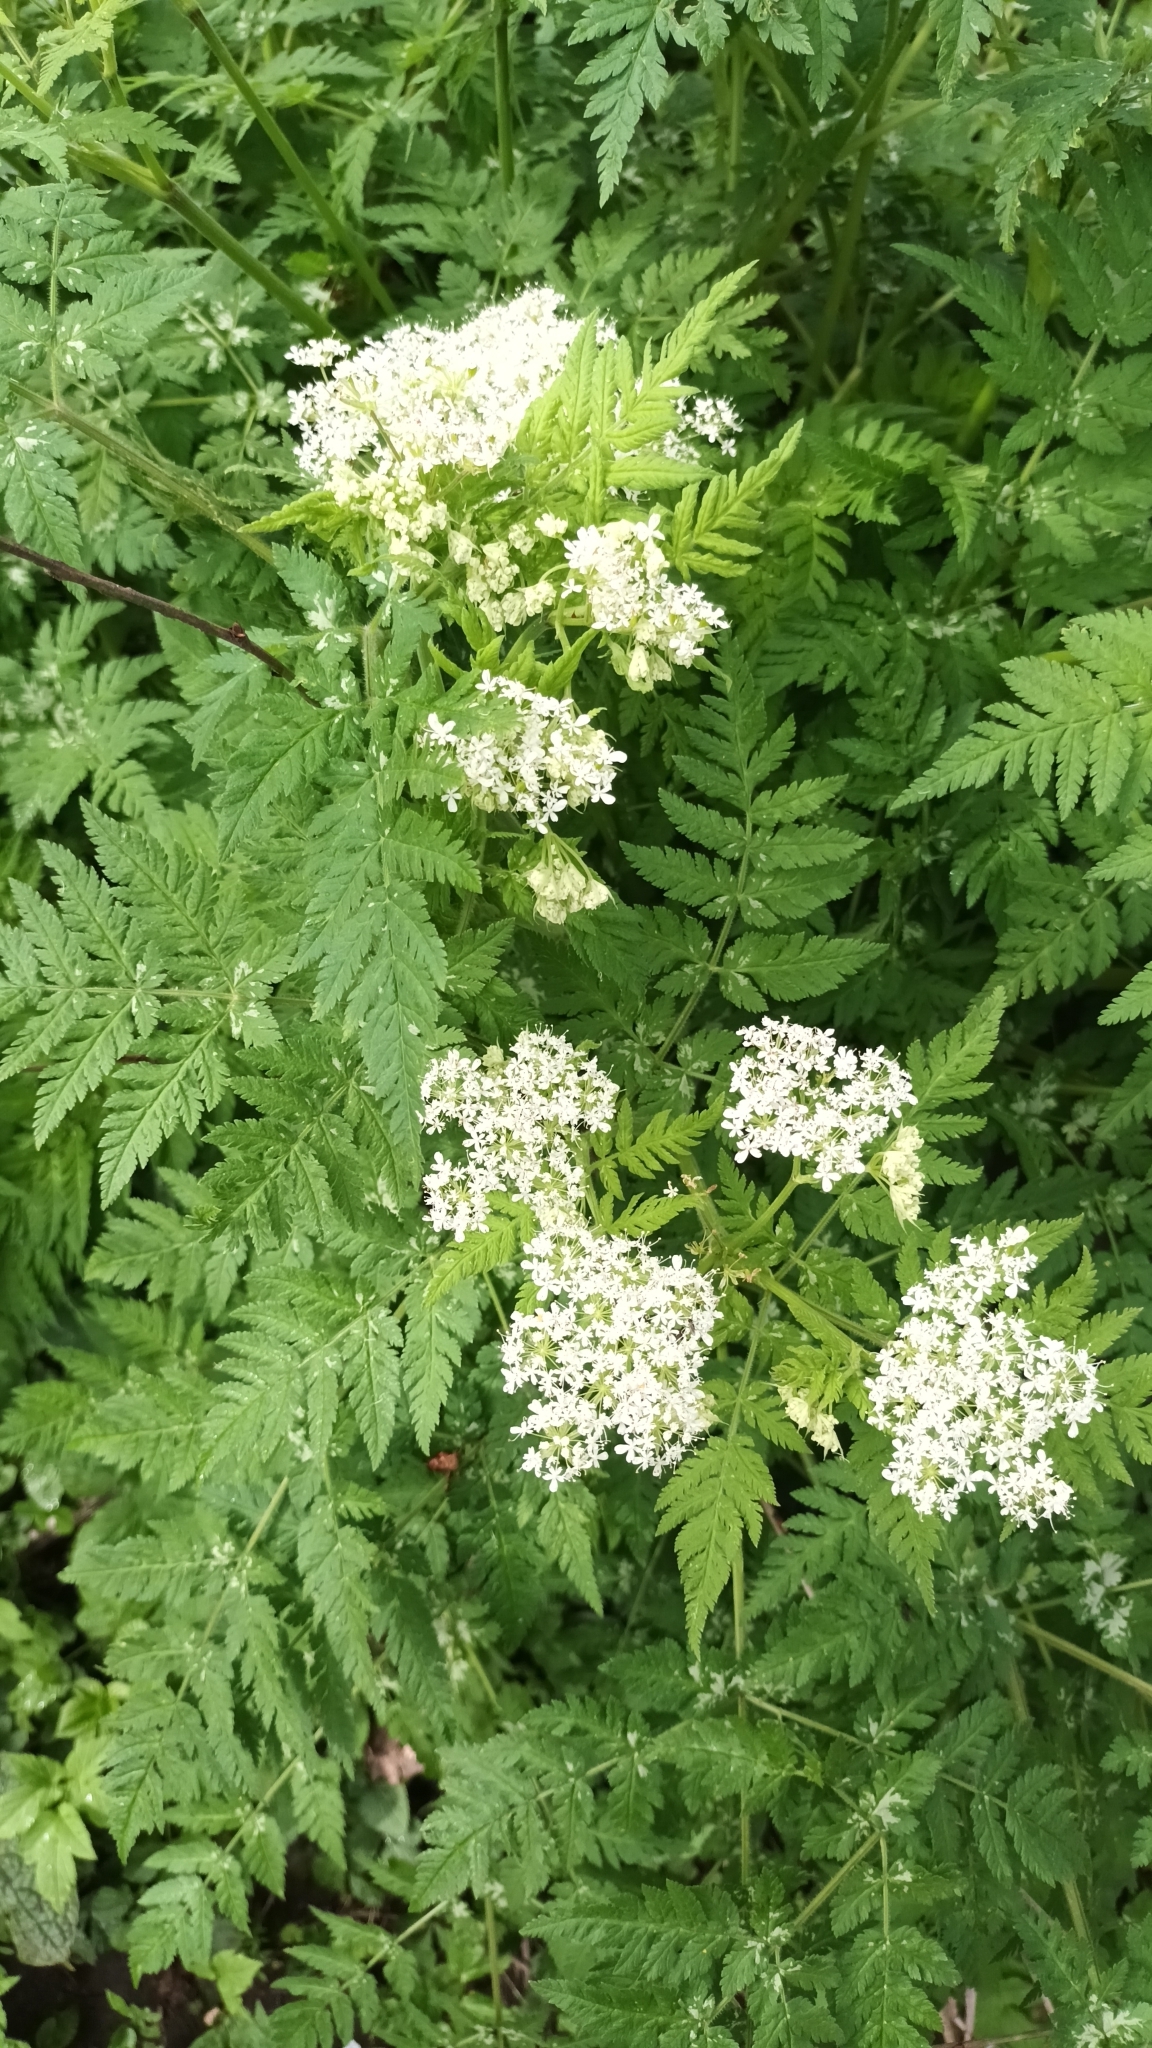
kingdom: Plantae
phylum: Tracheophyta
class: Magnoliopsida
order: Apiales
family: Apiaceae
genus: Myrrhis
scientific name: Myrrhis odorata
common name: Sweet cicely
